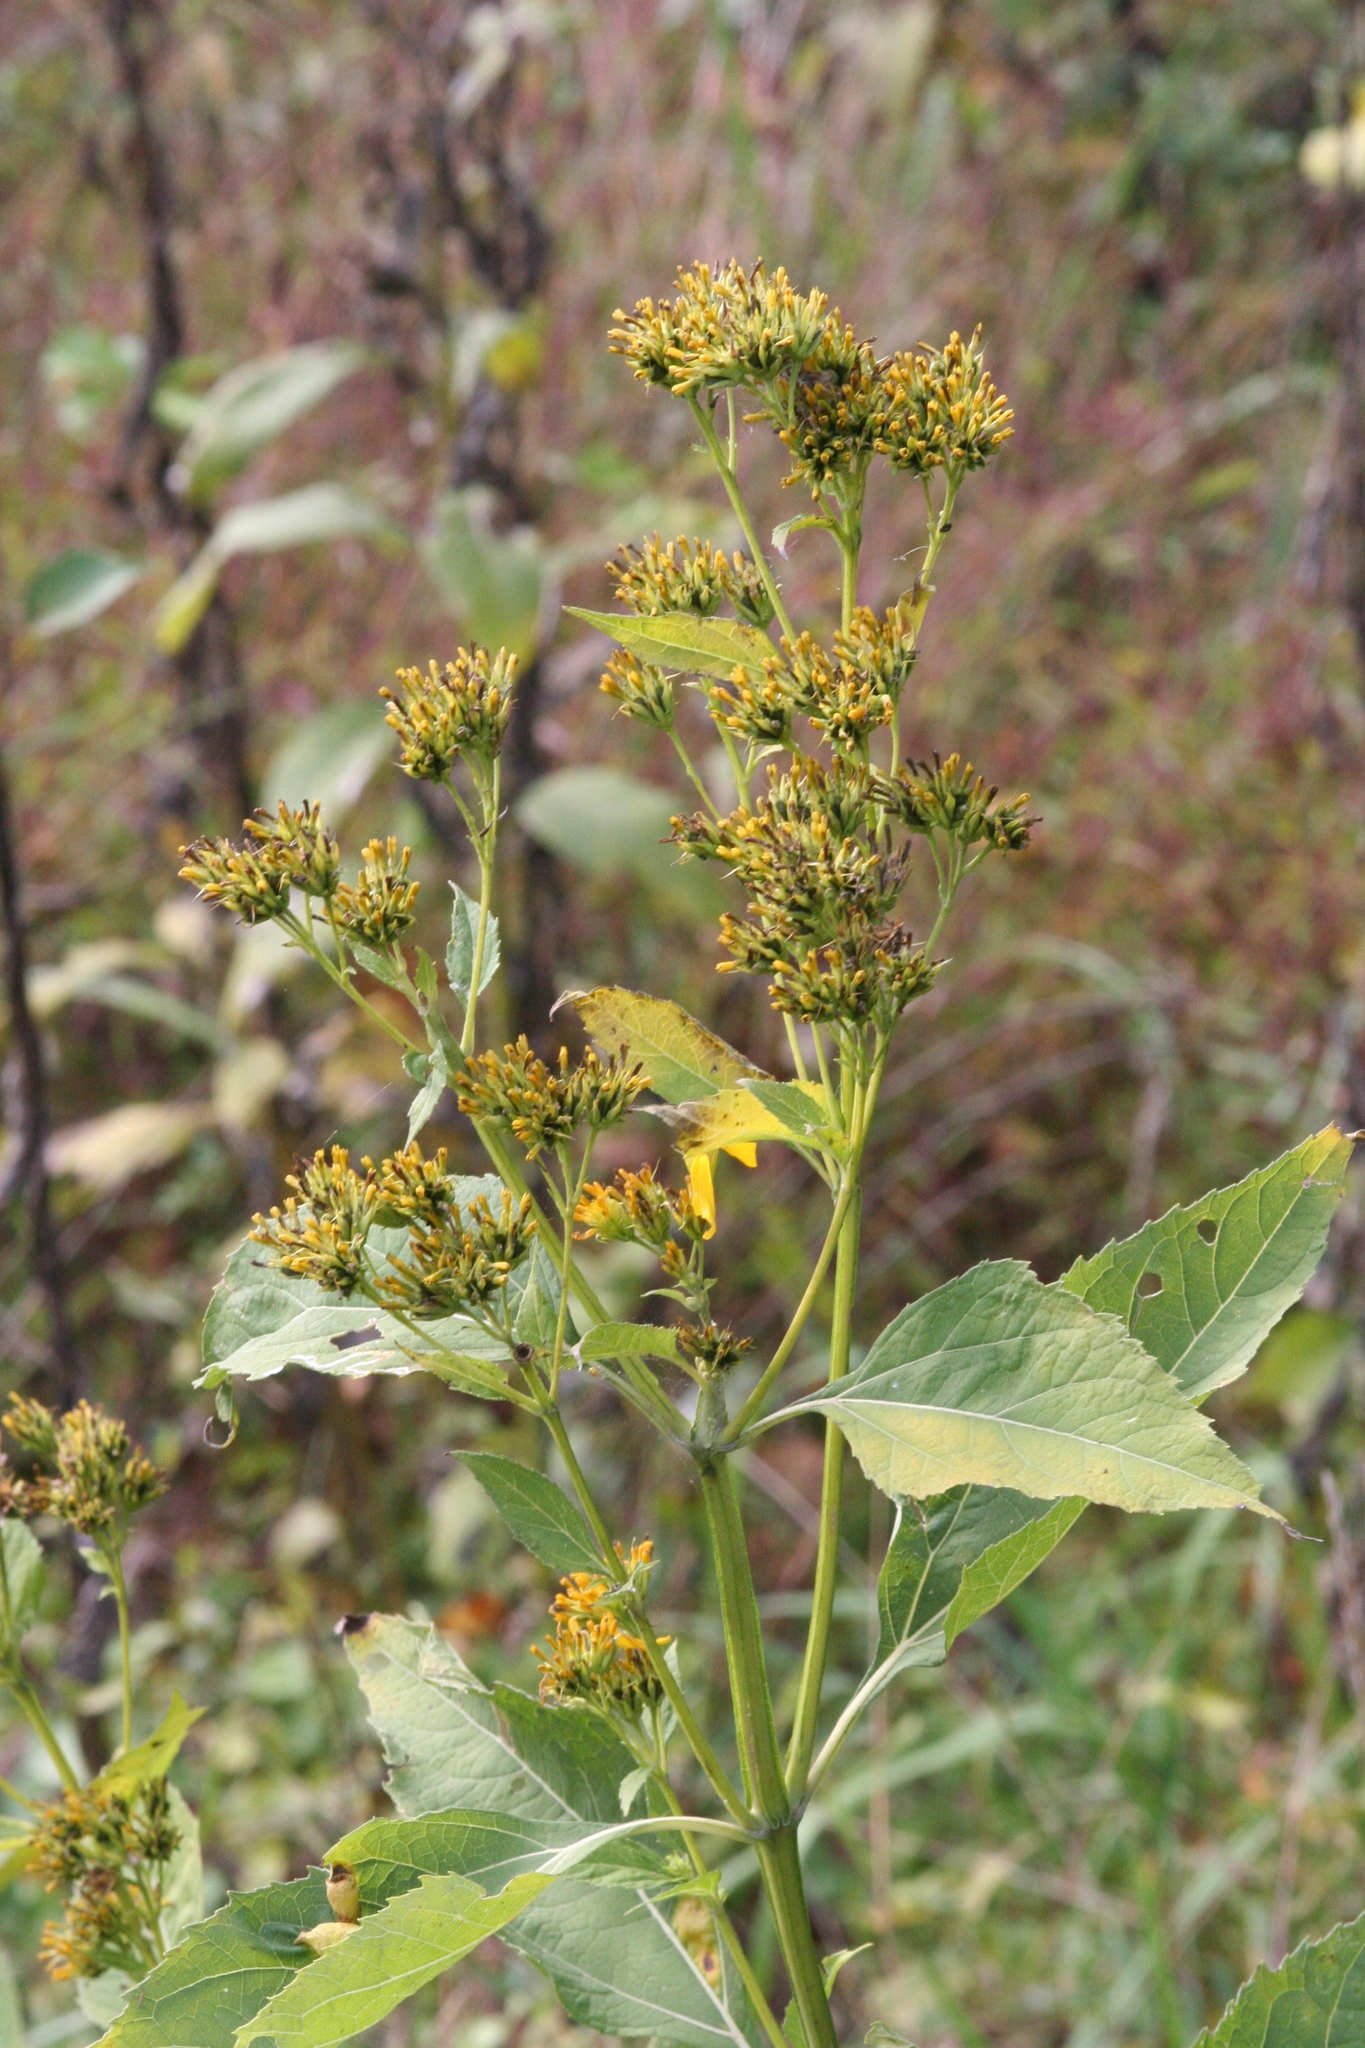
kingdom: Plantae
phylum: Tracheophyta
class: Magnoliopsida
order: Asterales
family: Asteraceae
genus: Verbesina
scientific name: Verbesina occidentalis
